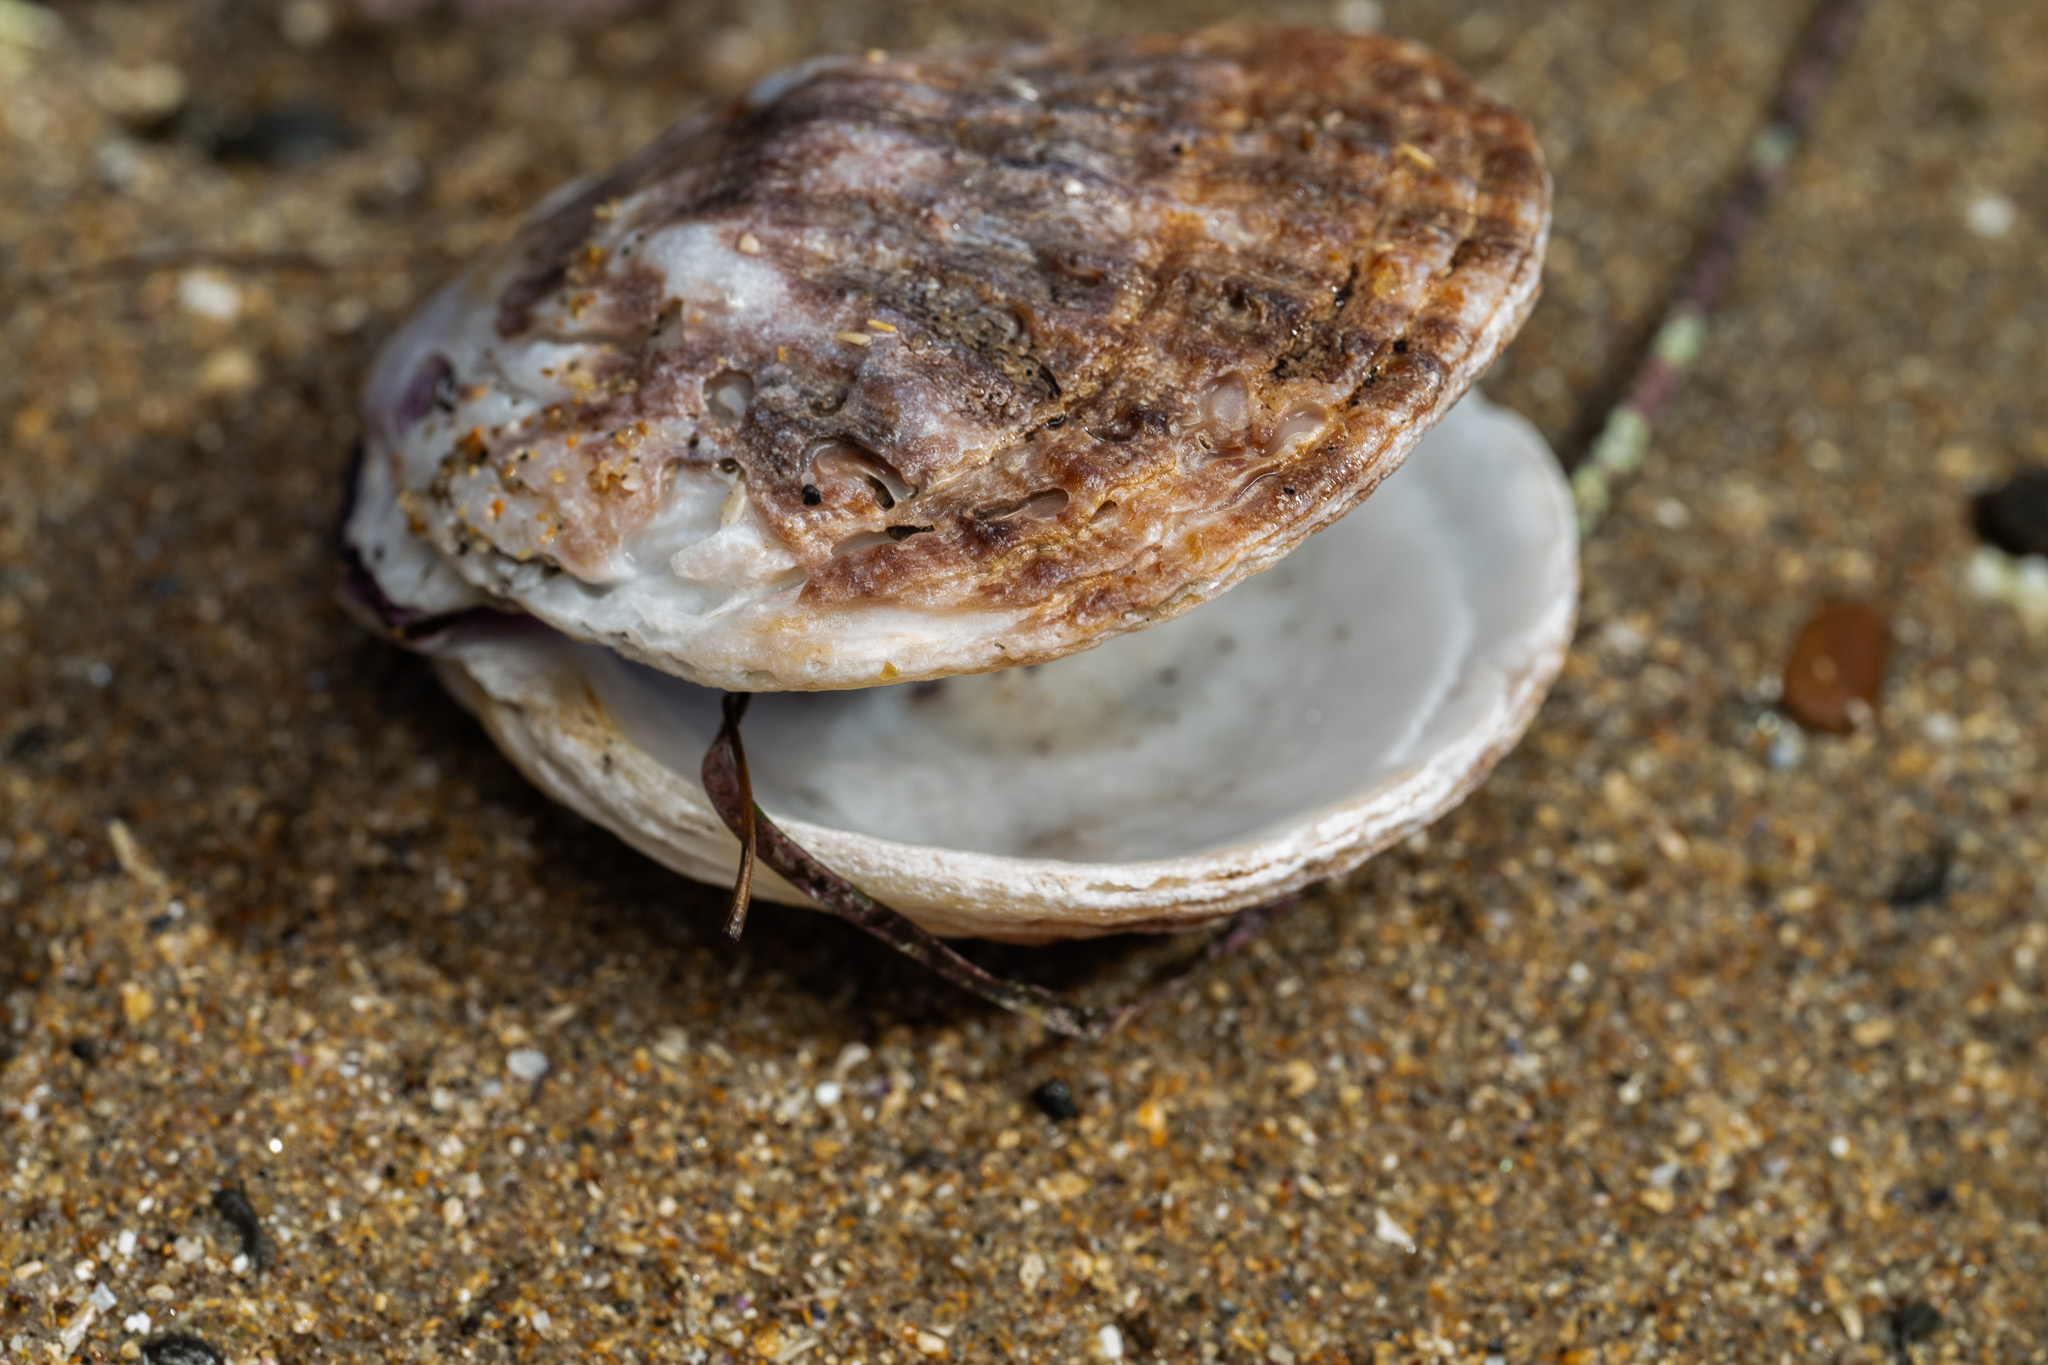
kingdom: Animalia
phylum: Mollusca
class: Bivalvia
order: Pectinida
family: Pectinidae
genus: Crassadoma
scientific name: Crassadoma gigantea
